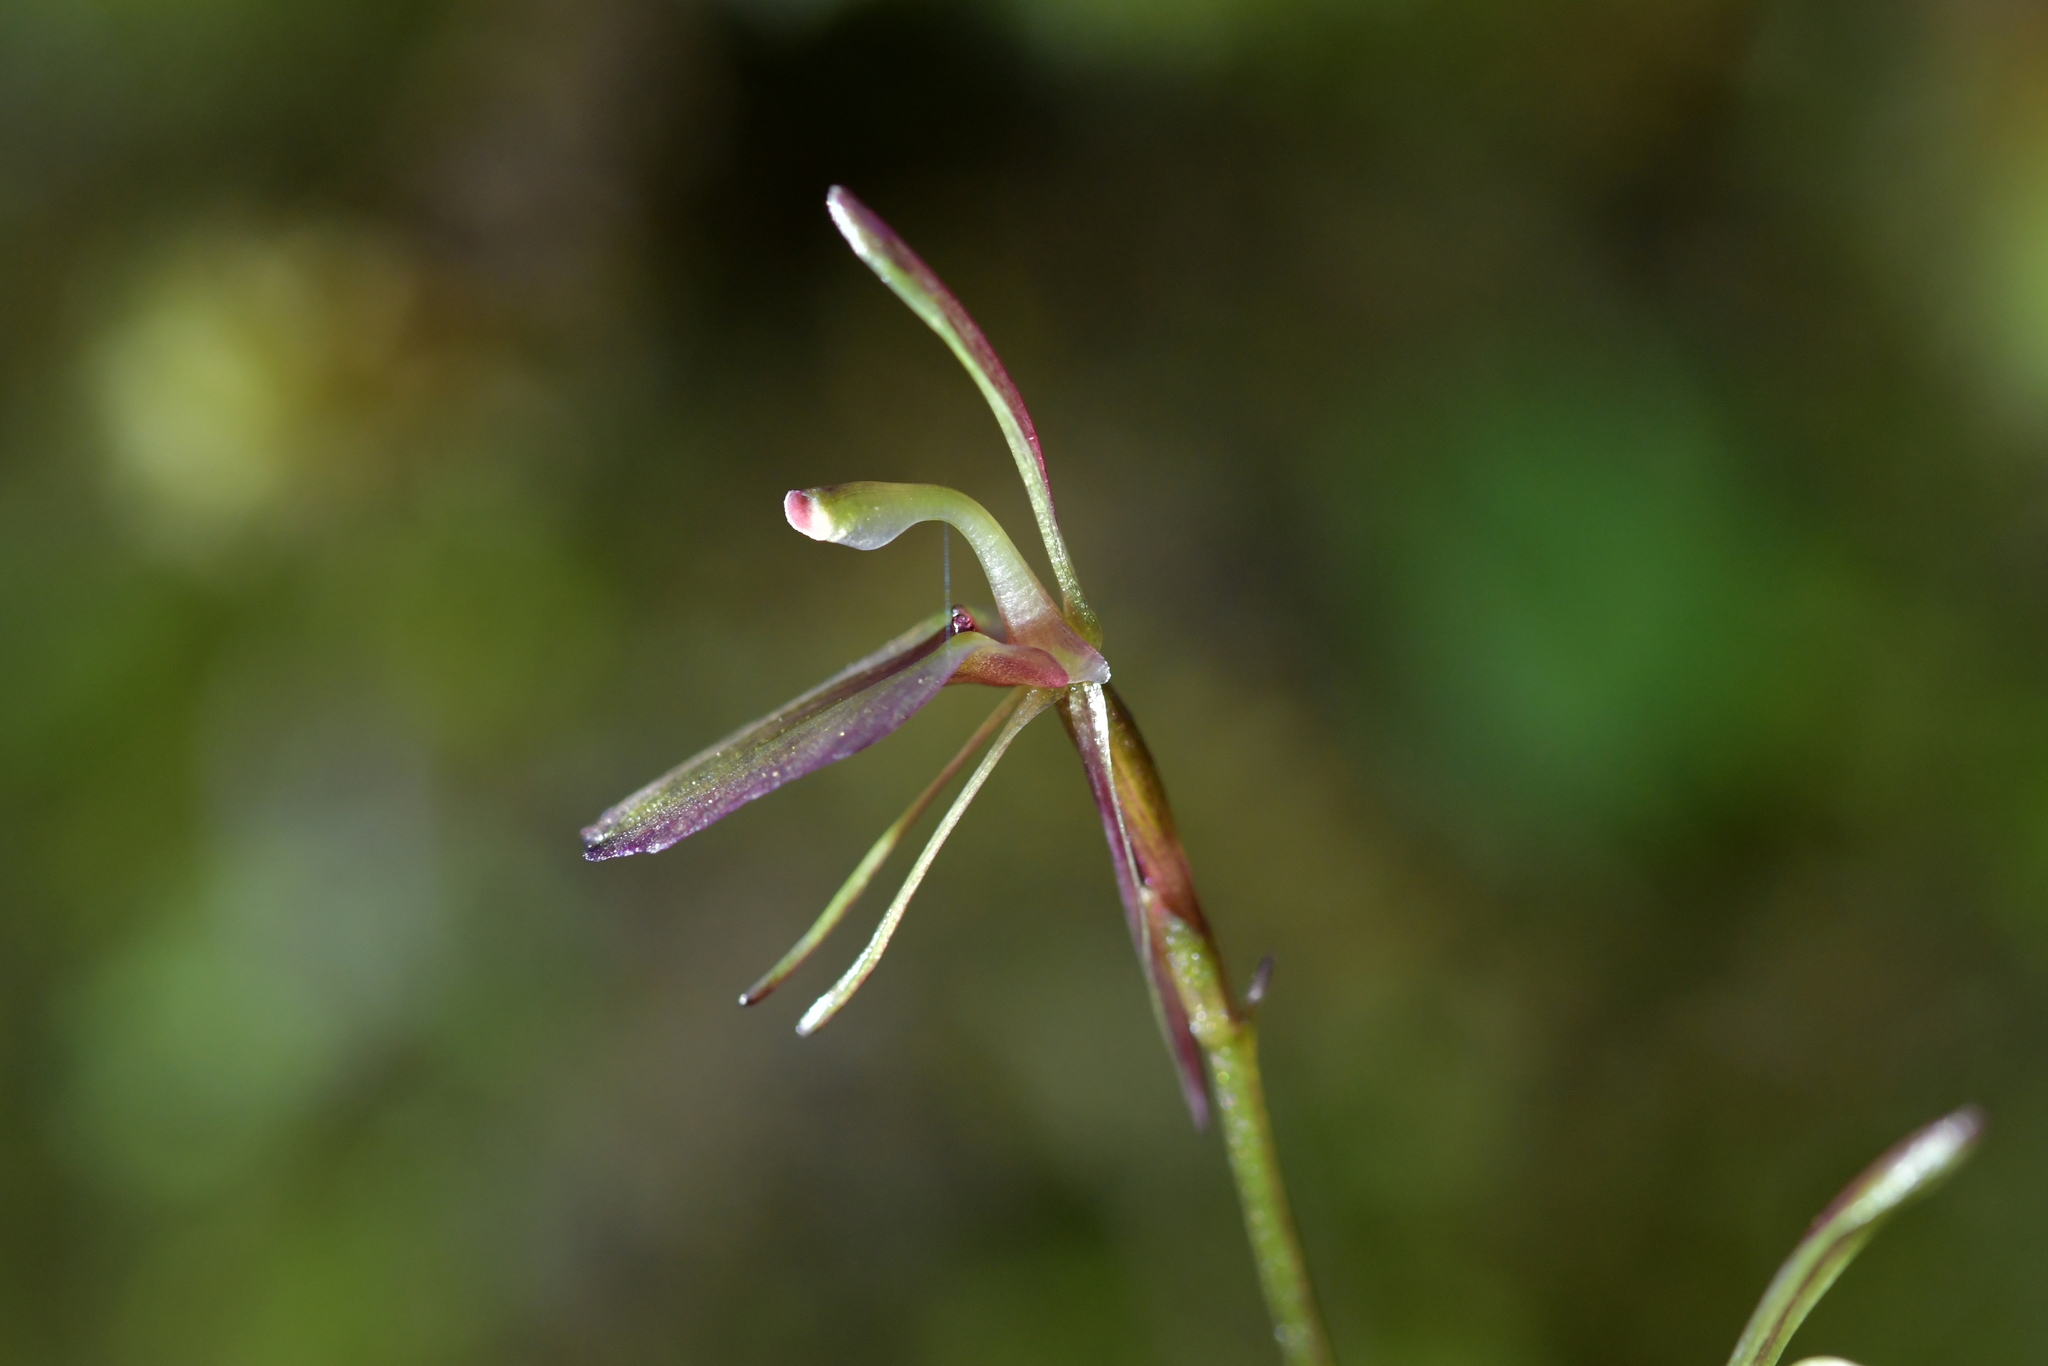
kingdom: Plantae
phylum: Tracheophyta
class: Liliopsida
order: Asparagales
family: Orchidaceae
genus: Cyrtostylis
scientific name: Cyrtostylis rotundifolia
